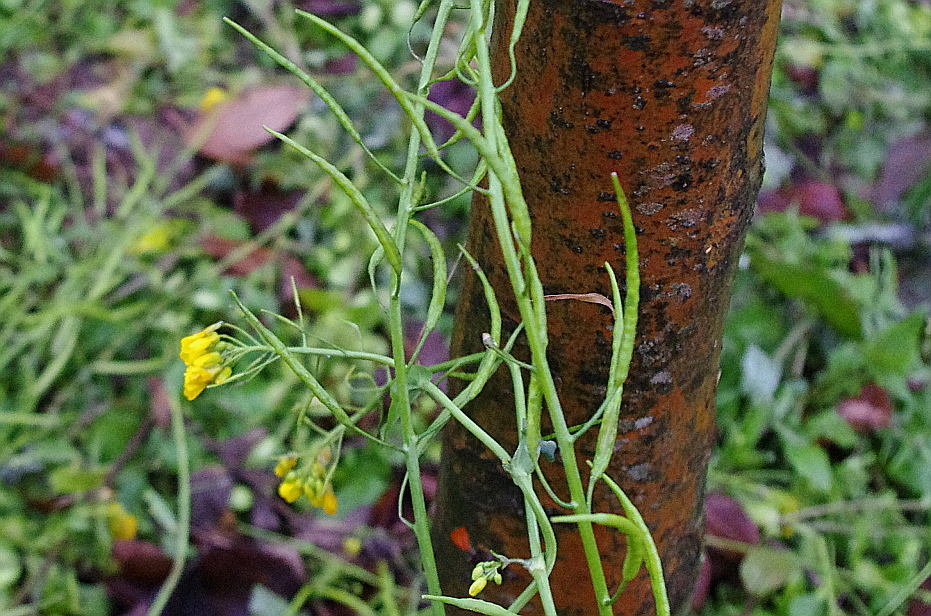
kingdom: Plantae
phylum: Tracheophyta
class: Magnoliopsida
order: Brassicales
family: Brassicaceae
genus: Brassica
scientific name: Brassica rapa
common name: Field mustard
